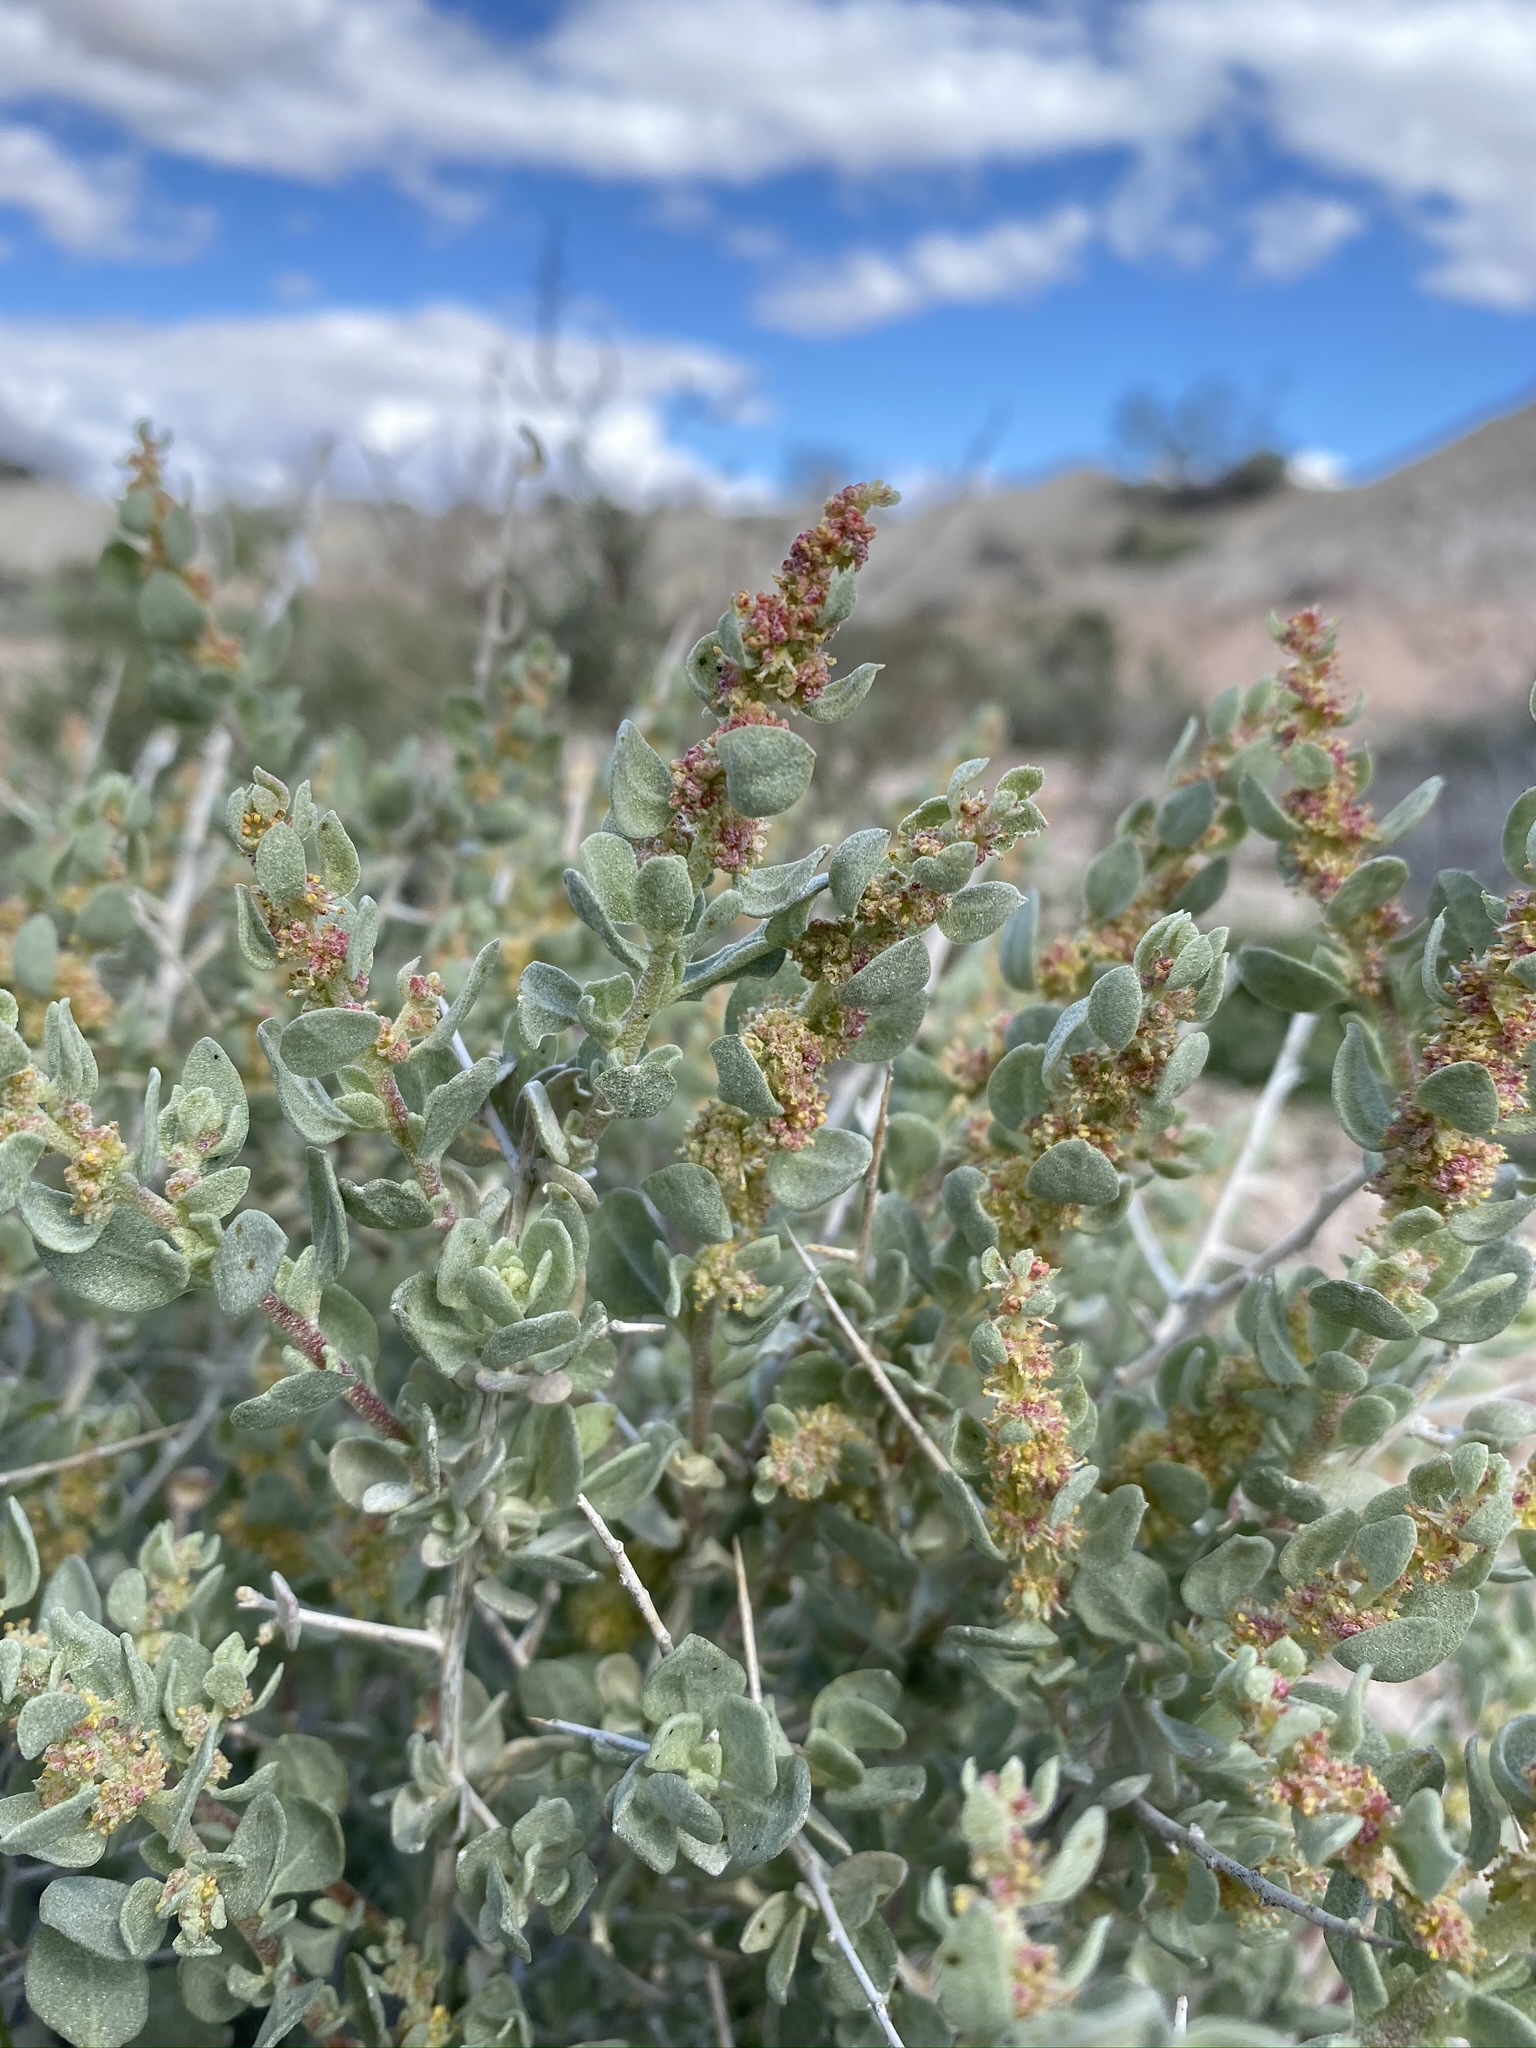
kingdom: Plantae
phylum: Tracheophyta
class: Magnoliopsida
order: Caryophyllales
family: Amaranthaceae
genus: Atriplex
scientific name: Atriplex confertifolia
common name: Shadscale
